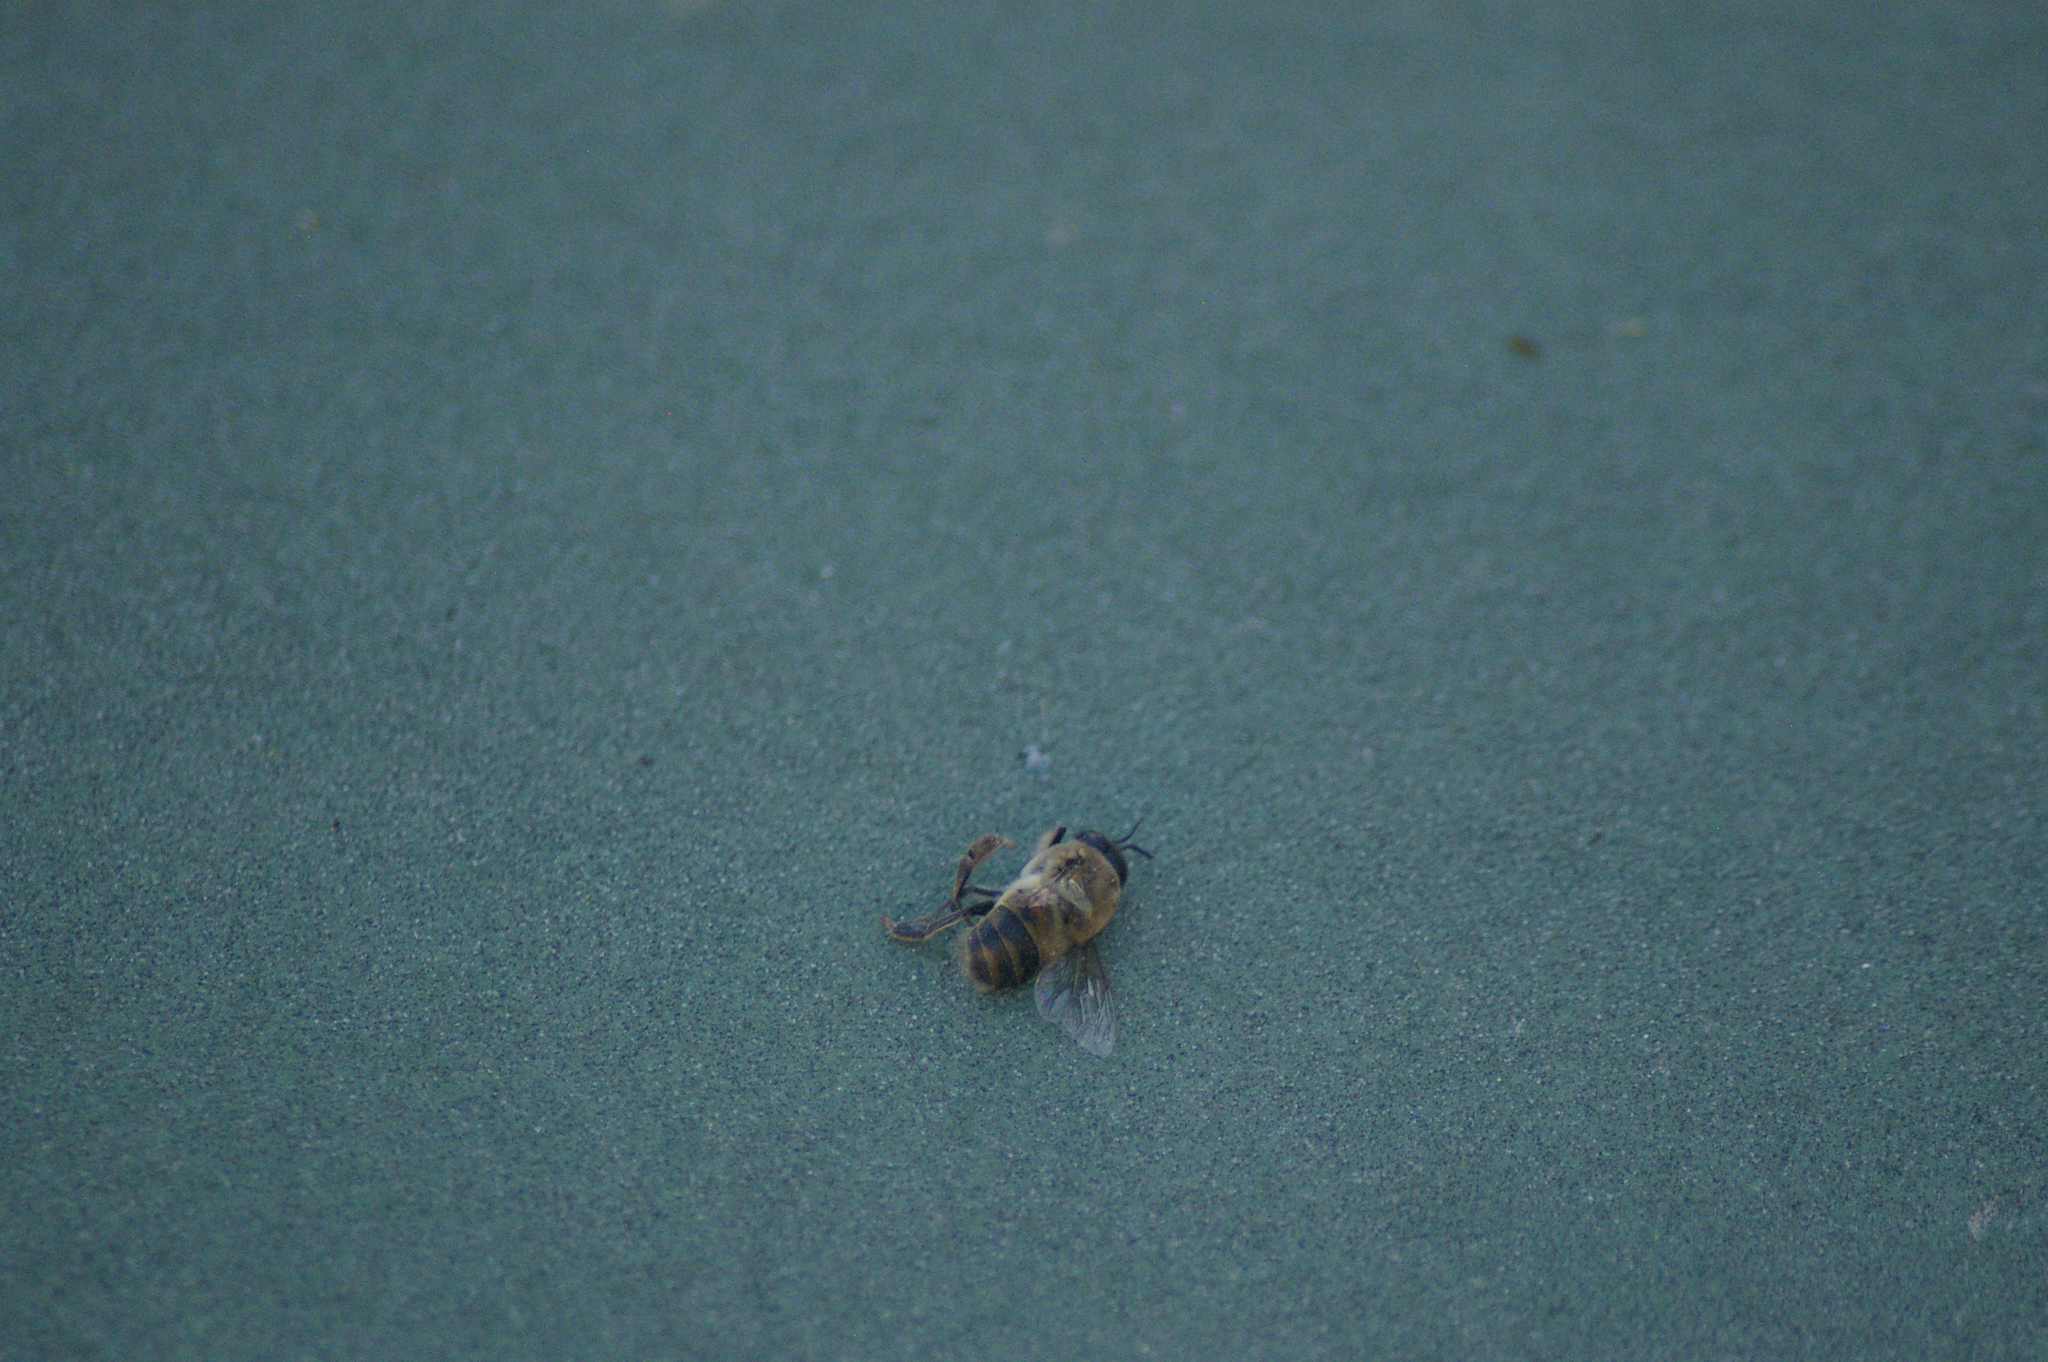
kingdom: Animalia
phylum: Arthropoda
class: Insecta
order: Hymenoptera
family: Apidae
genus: Apis
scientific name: Apis mellifera
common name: Honey bee
